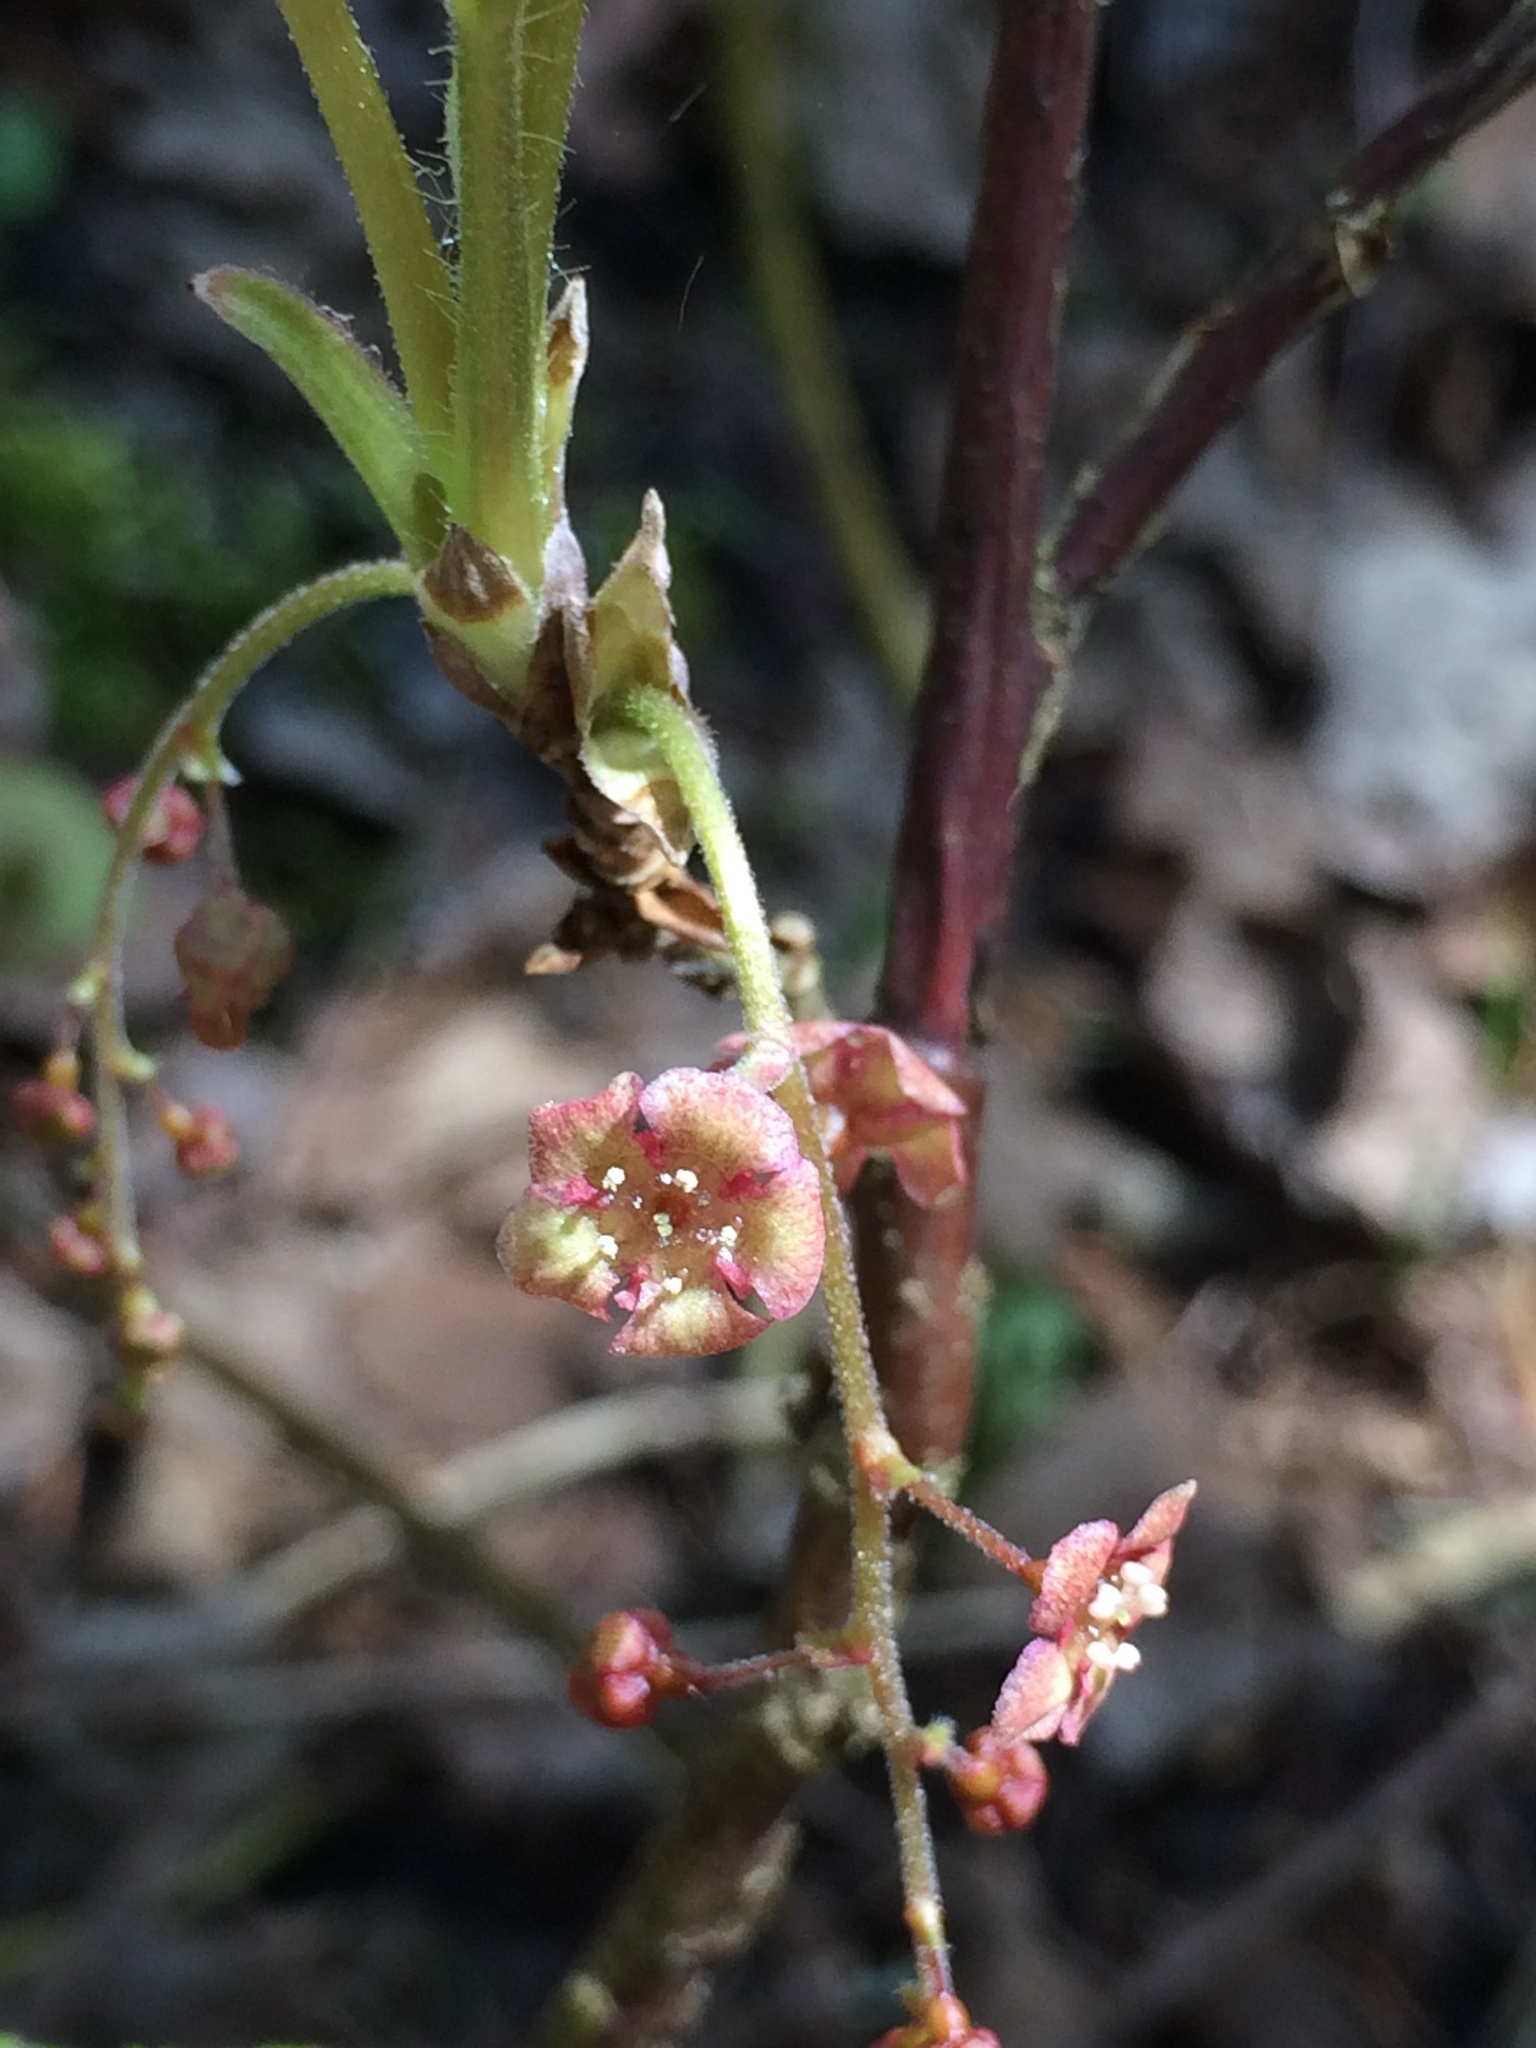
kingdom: Plantae
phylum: Tracheophyta
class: Magnoliopsida
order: Saxifragales
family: Grossulariaceae
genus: Ribes
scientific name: Ribes triste
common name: Swamp red currant
